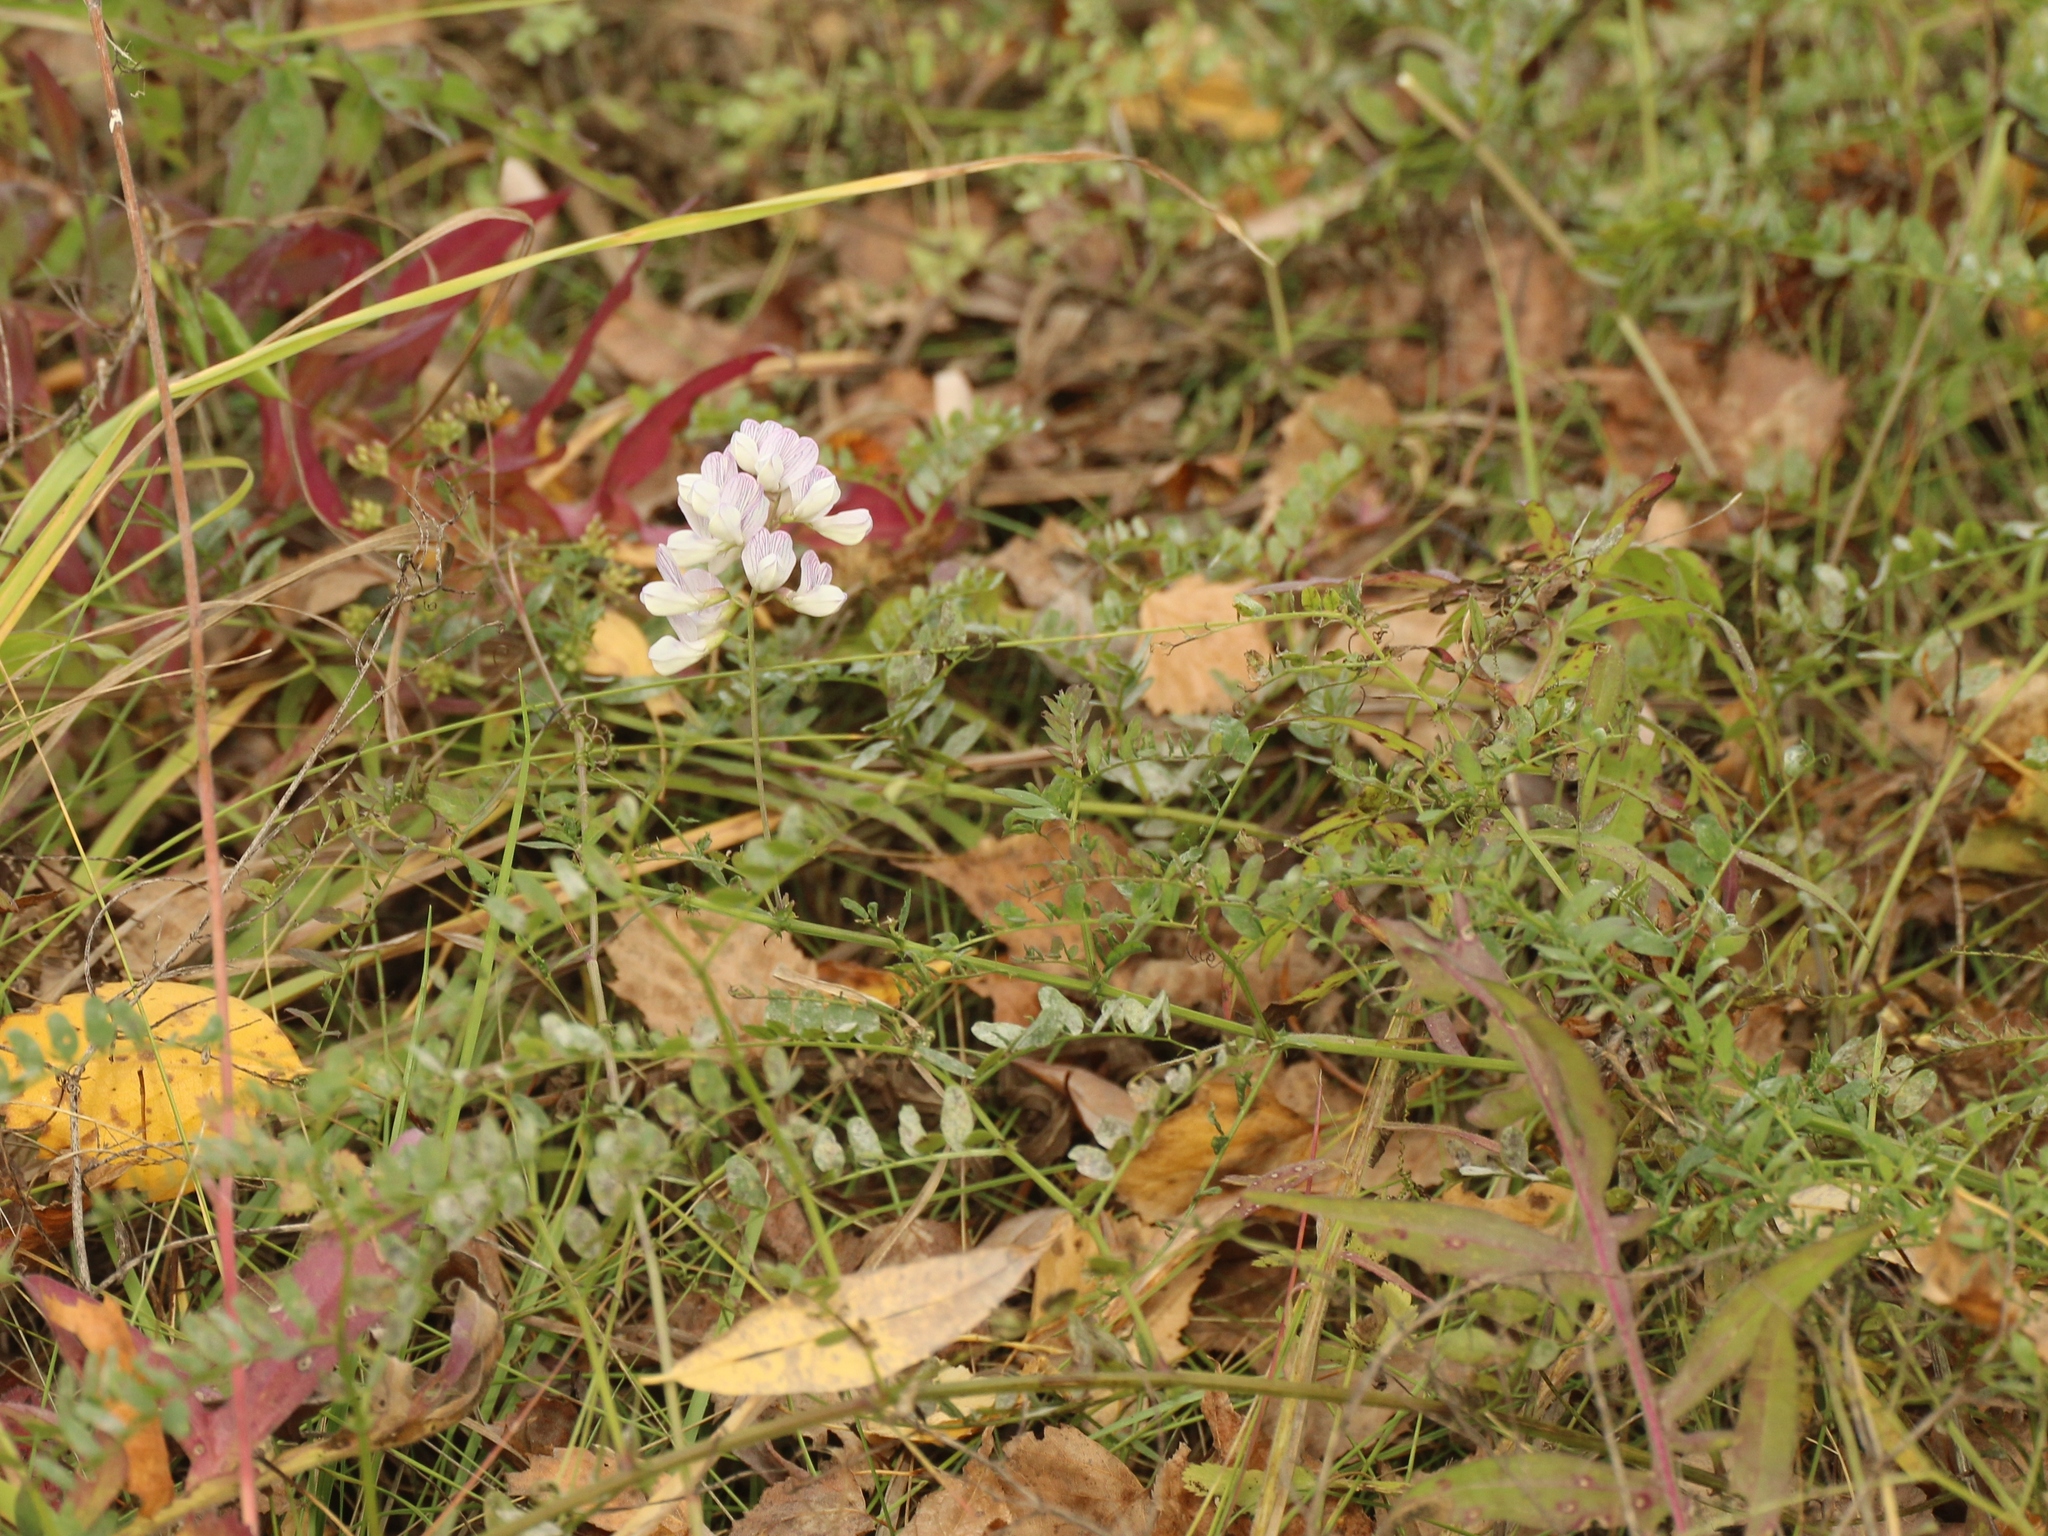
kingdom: Plantae
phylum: Tracheophyta
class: Magnoliopsida
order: Fabales
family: Fabaceae
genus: Vicia
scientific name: Vicia sylvatica
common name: Wood vetch
